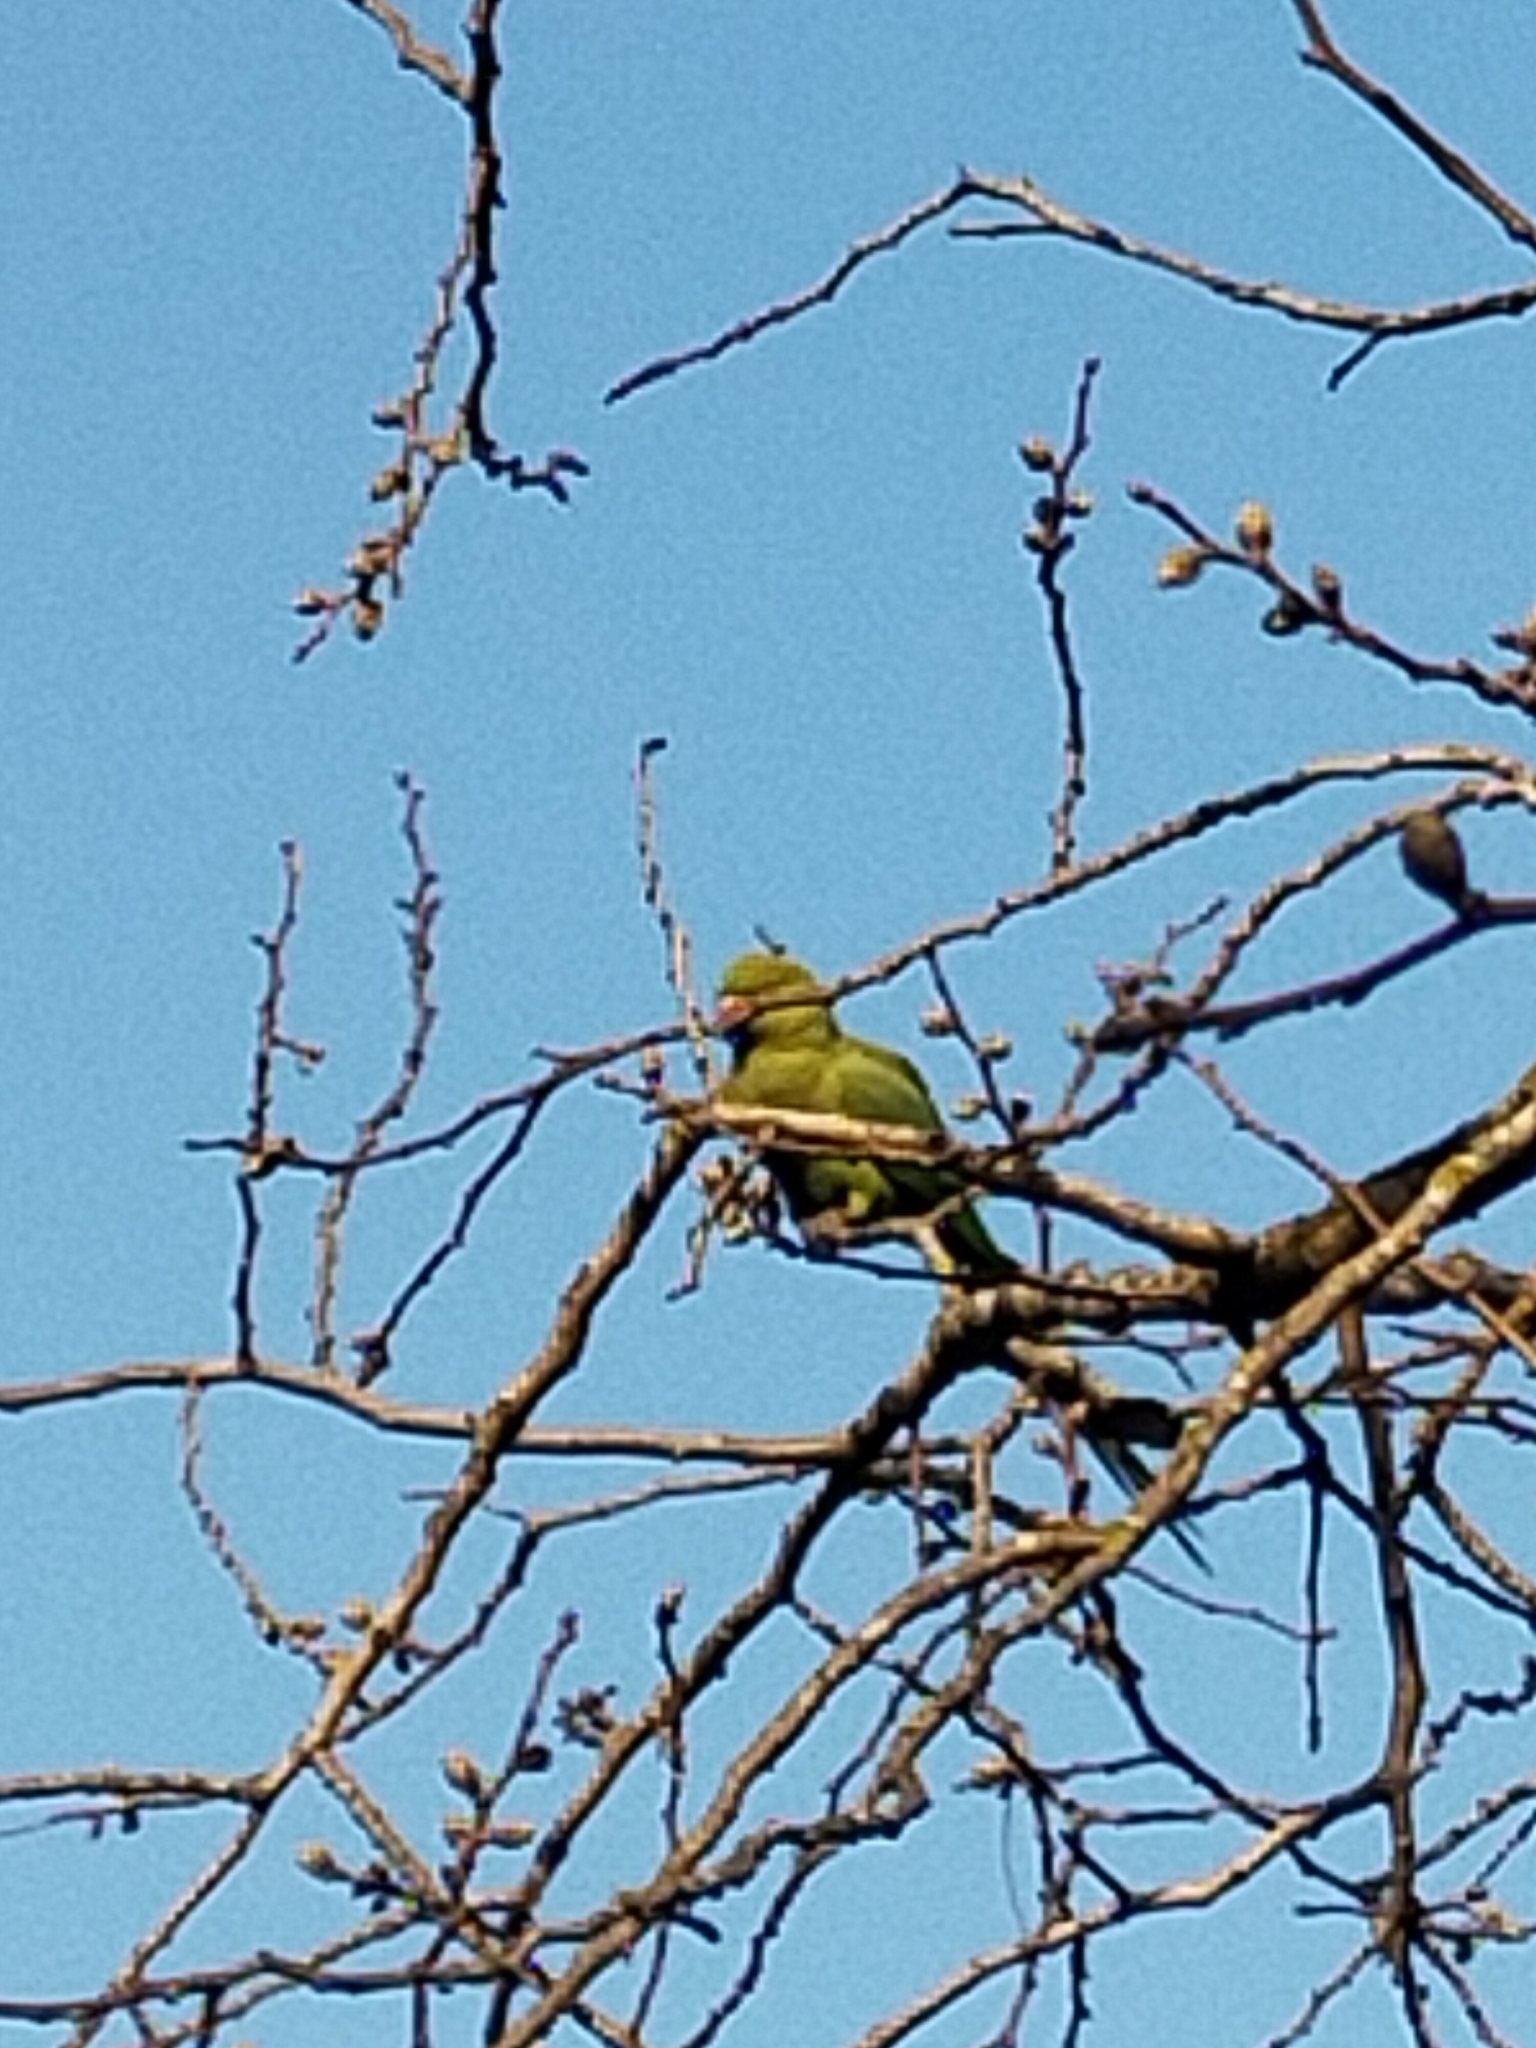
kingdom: Animalia
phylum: Chordata
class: Aves
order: Psittaciformes
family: Psittacidae
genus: Psittacula
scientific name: Psittacula krameri
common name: Rose-ringed parakeet
